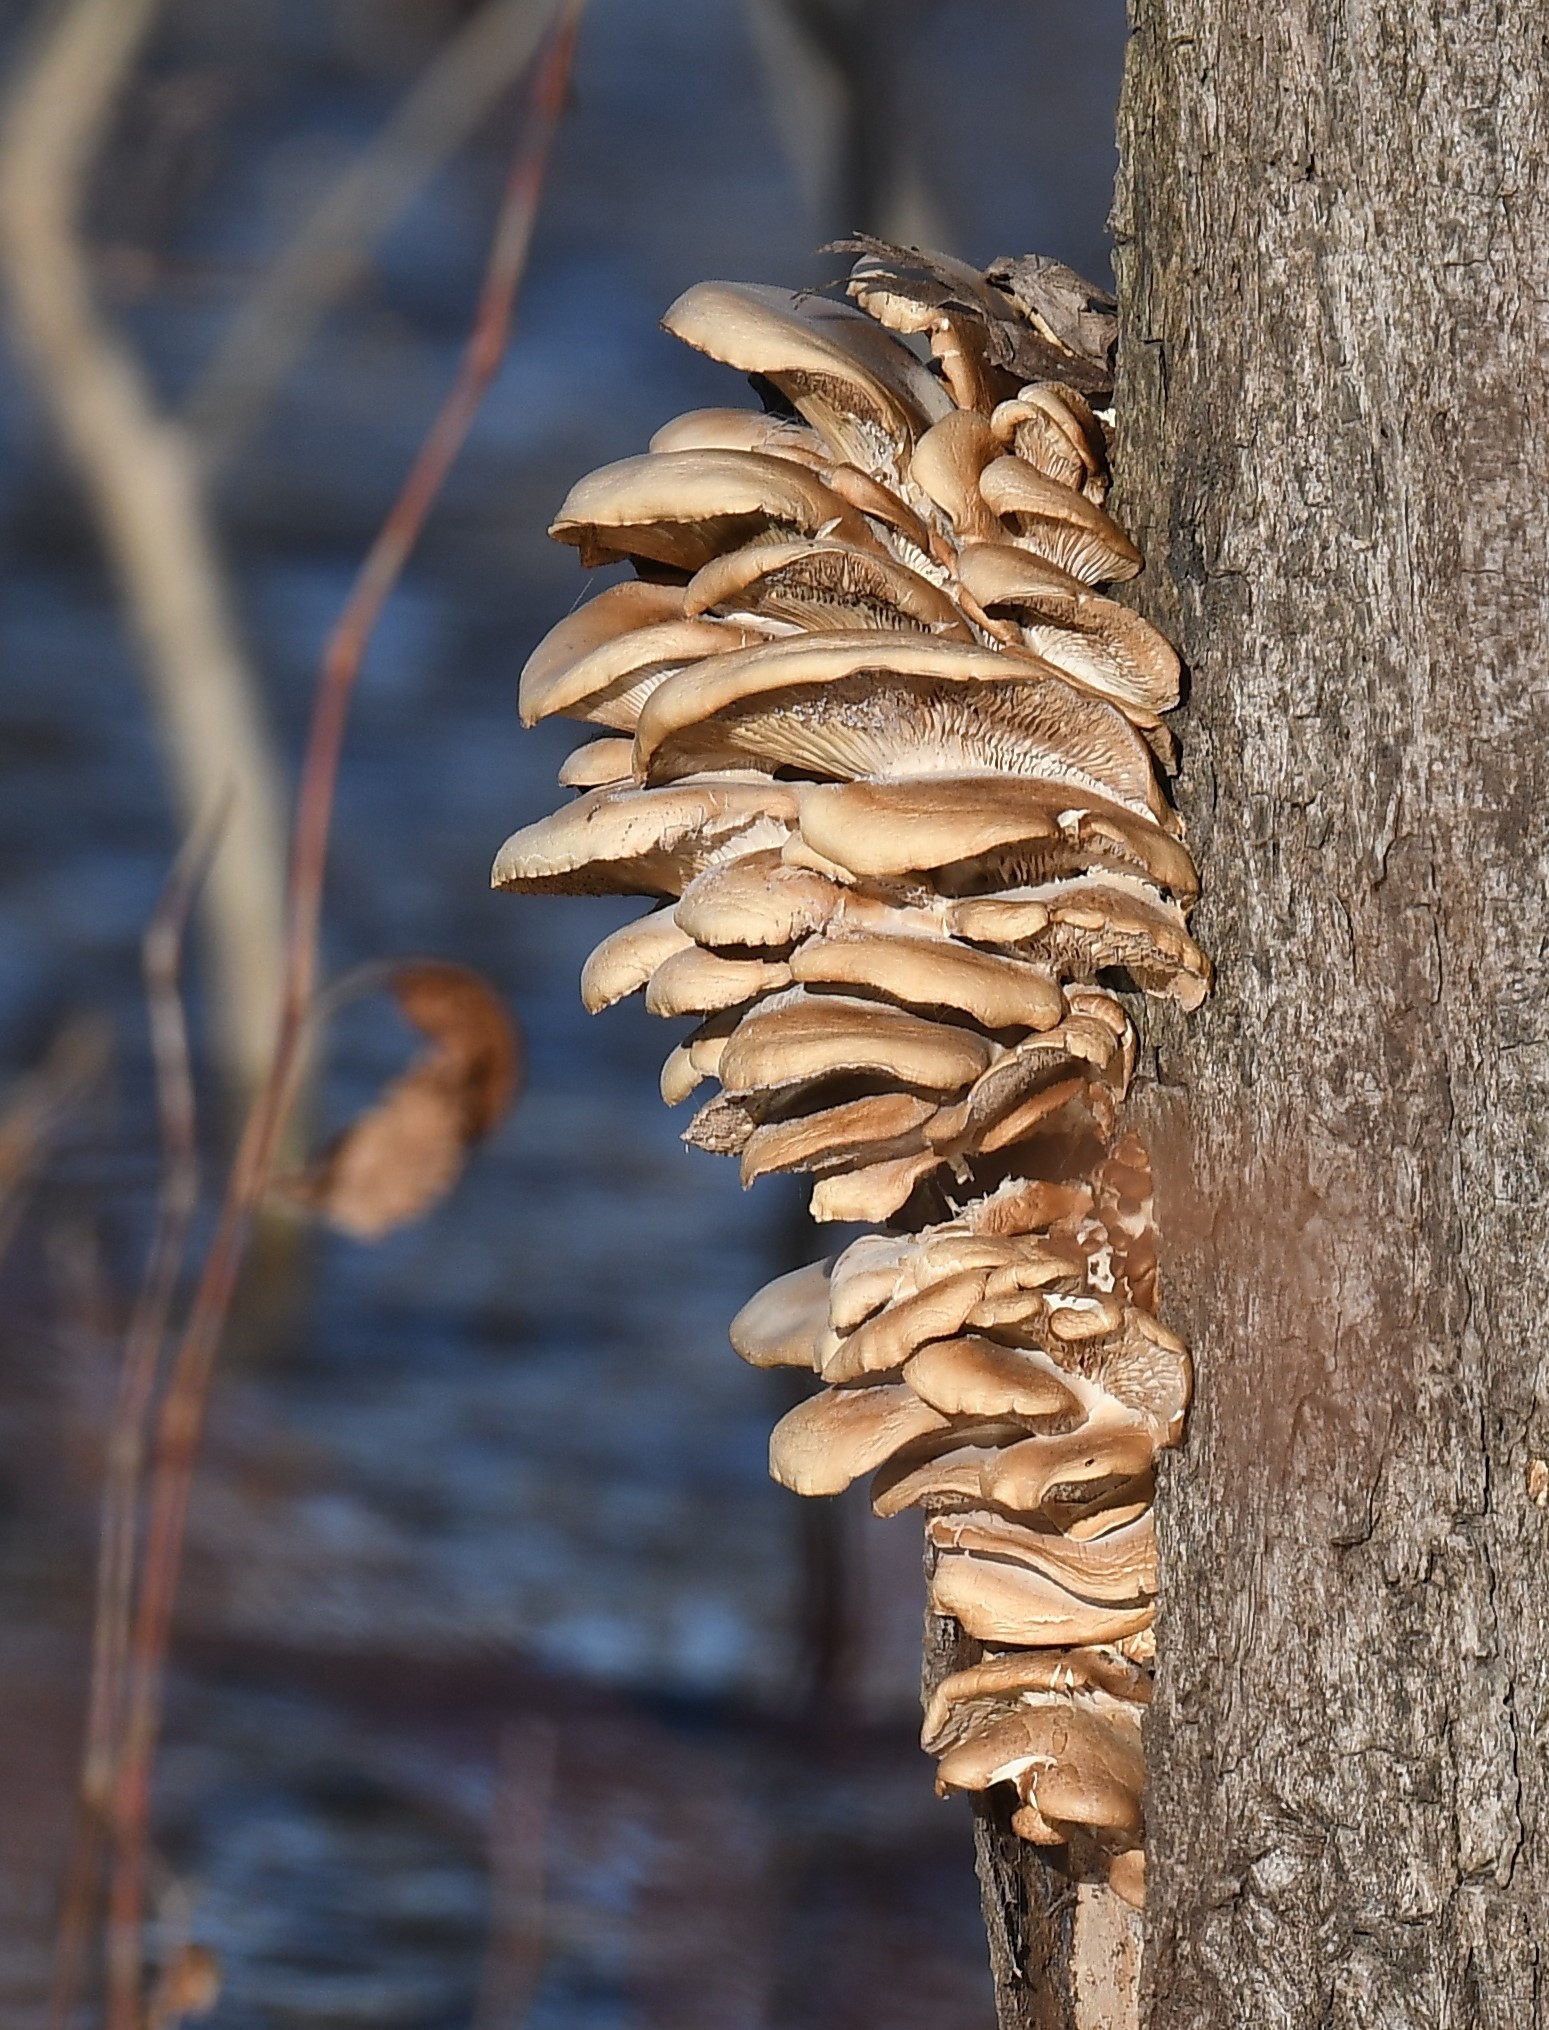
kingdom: Fungi
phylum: Basidiomycota
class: Agaricomycetes
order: Agaricales
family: Pleurotaceae
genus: Pleurotus
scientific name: Pleurotus ostreatus
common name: Oyster mushroom
